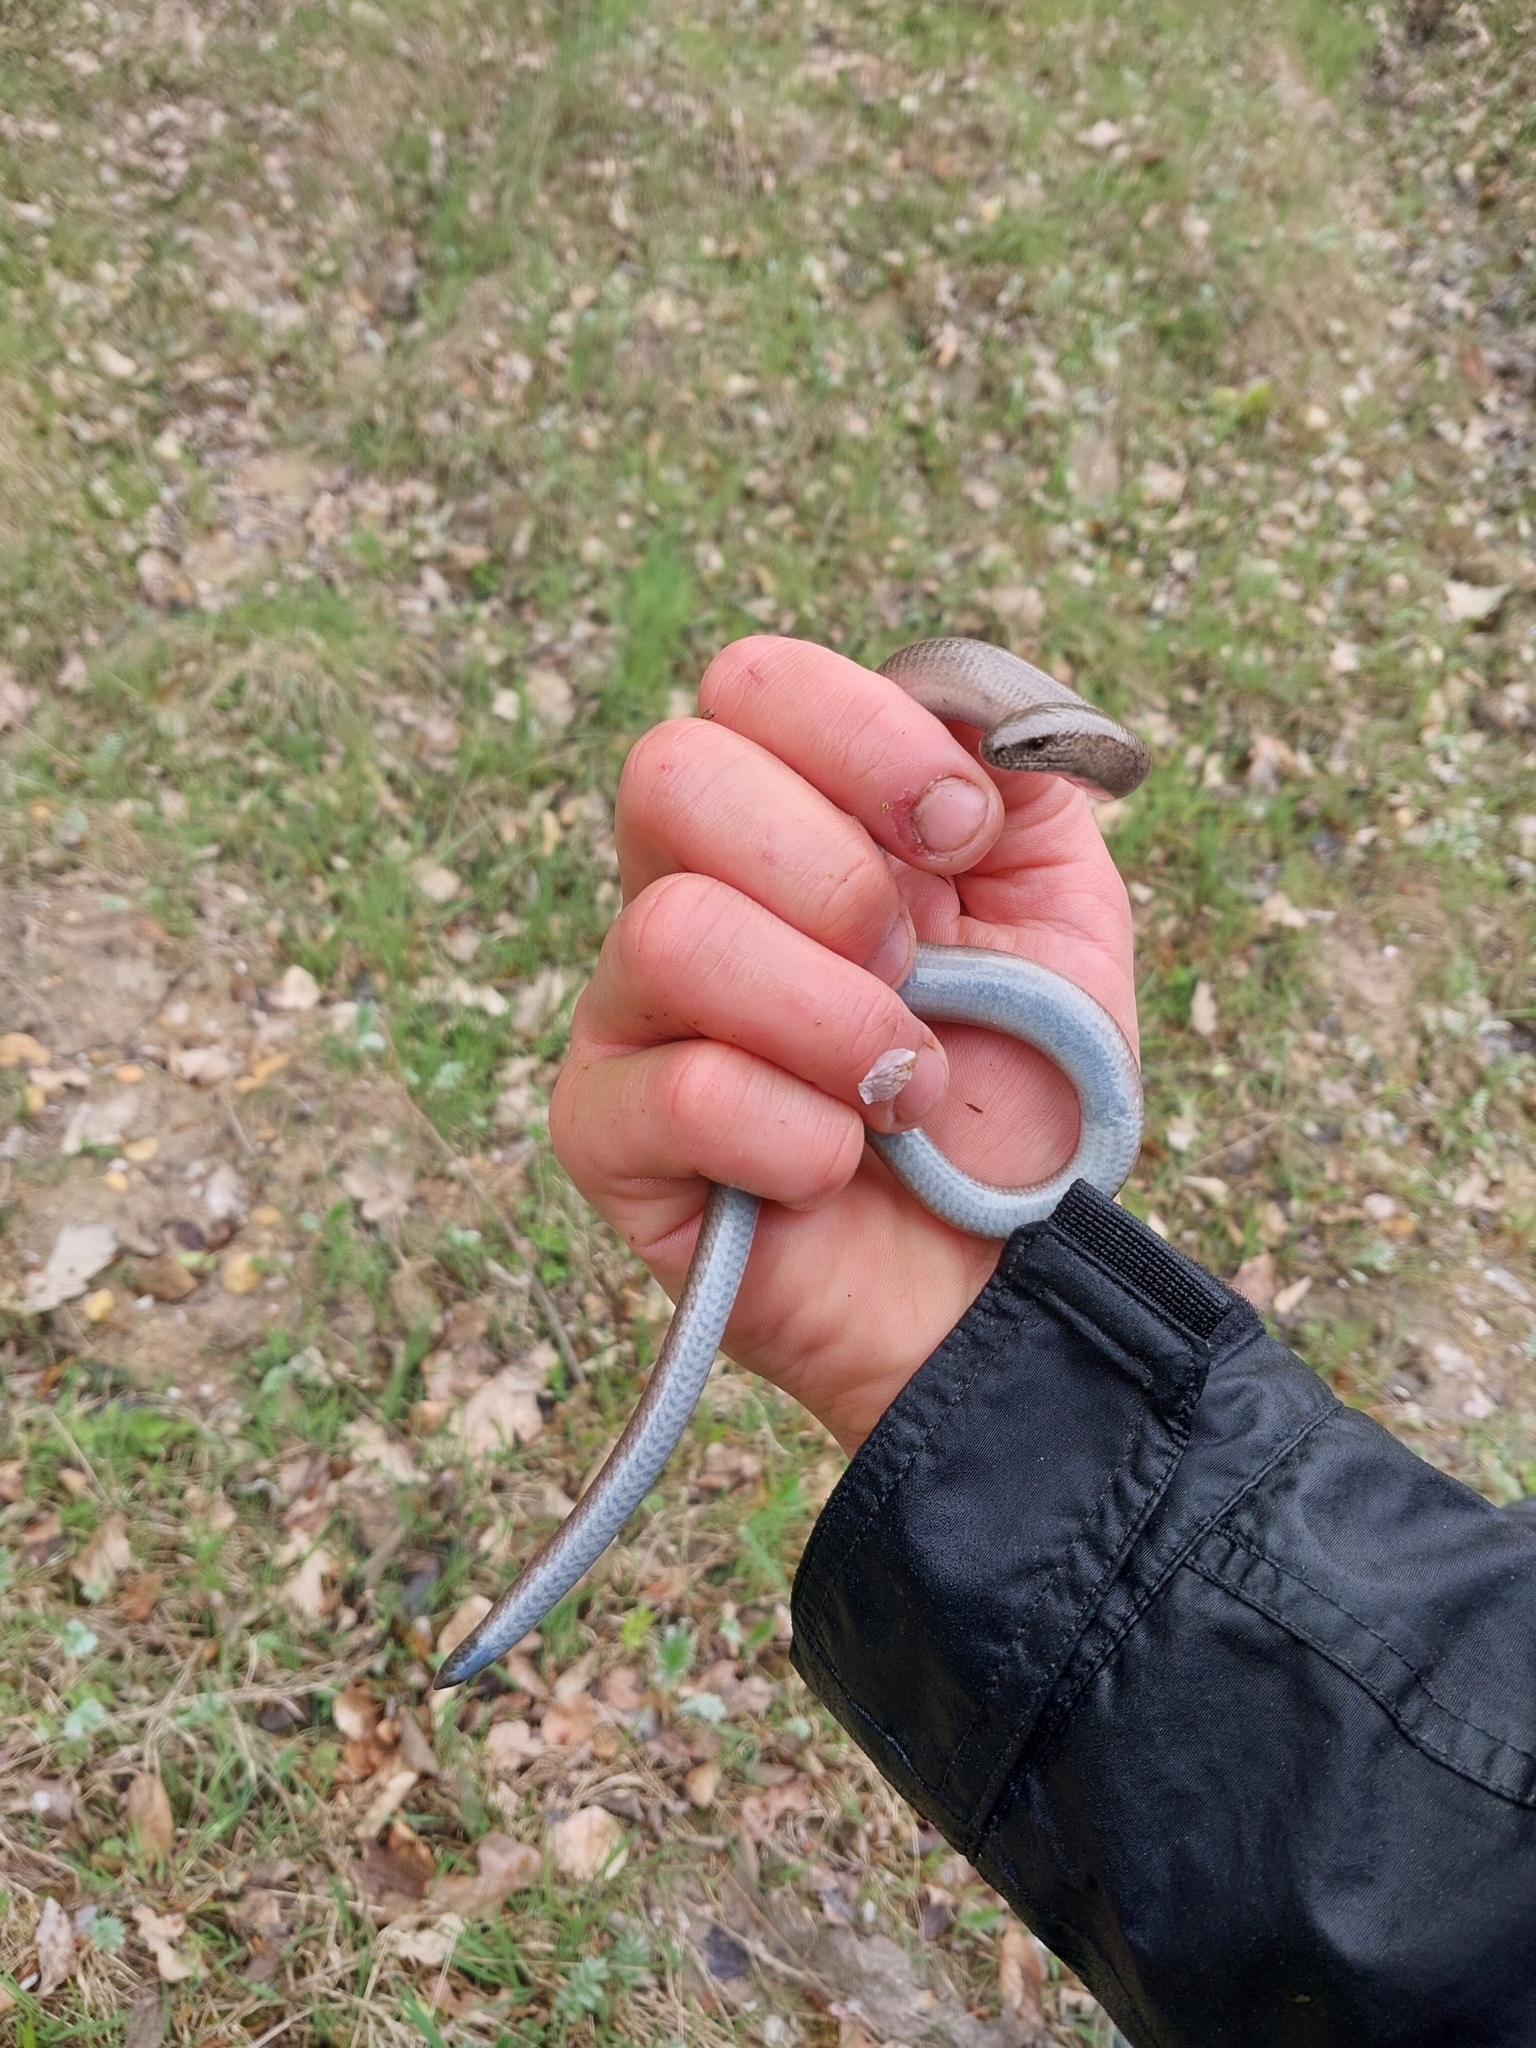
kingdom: Animalia
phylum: Chordata
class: Squamata
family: Anguidae
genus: Anguis
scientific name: Anguis fragilis
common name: Slow worm
